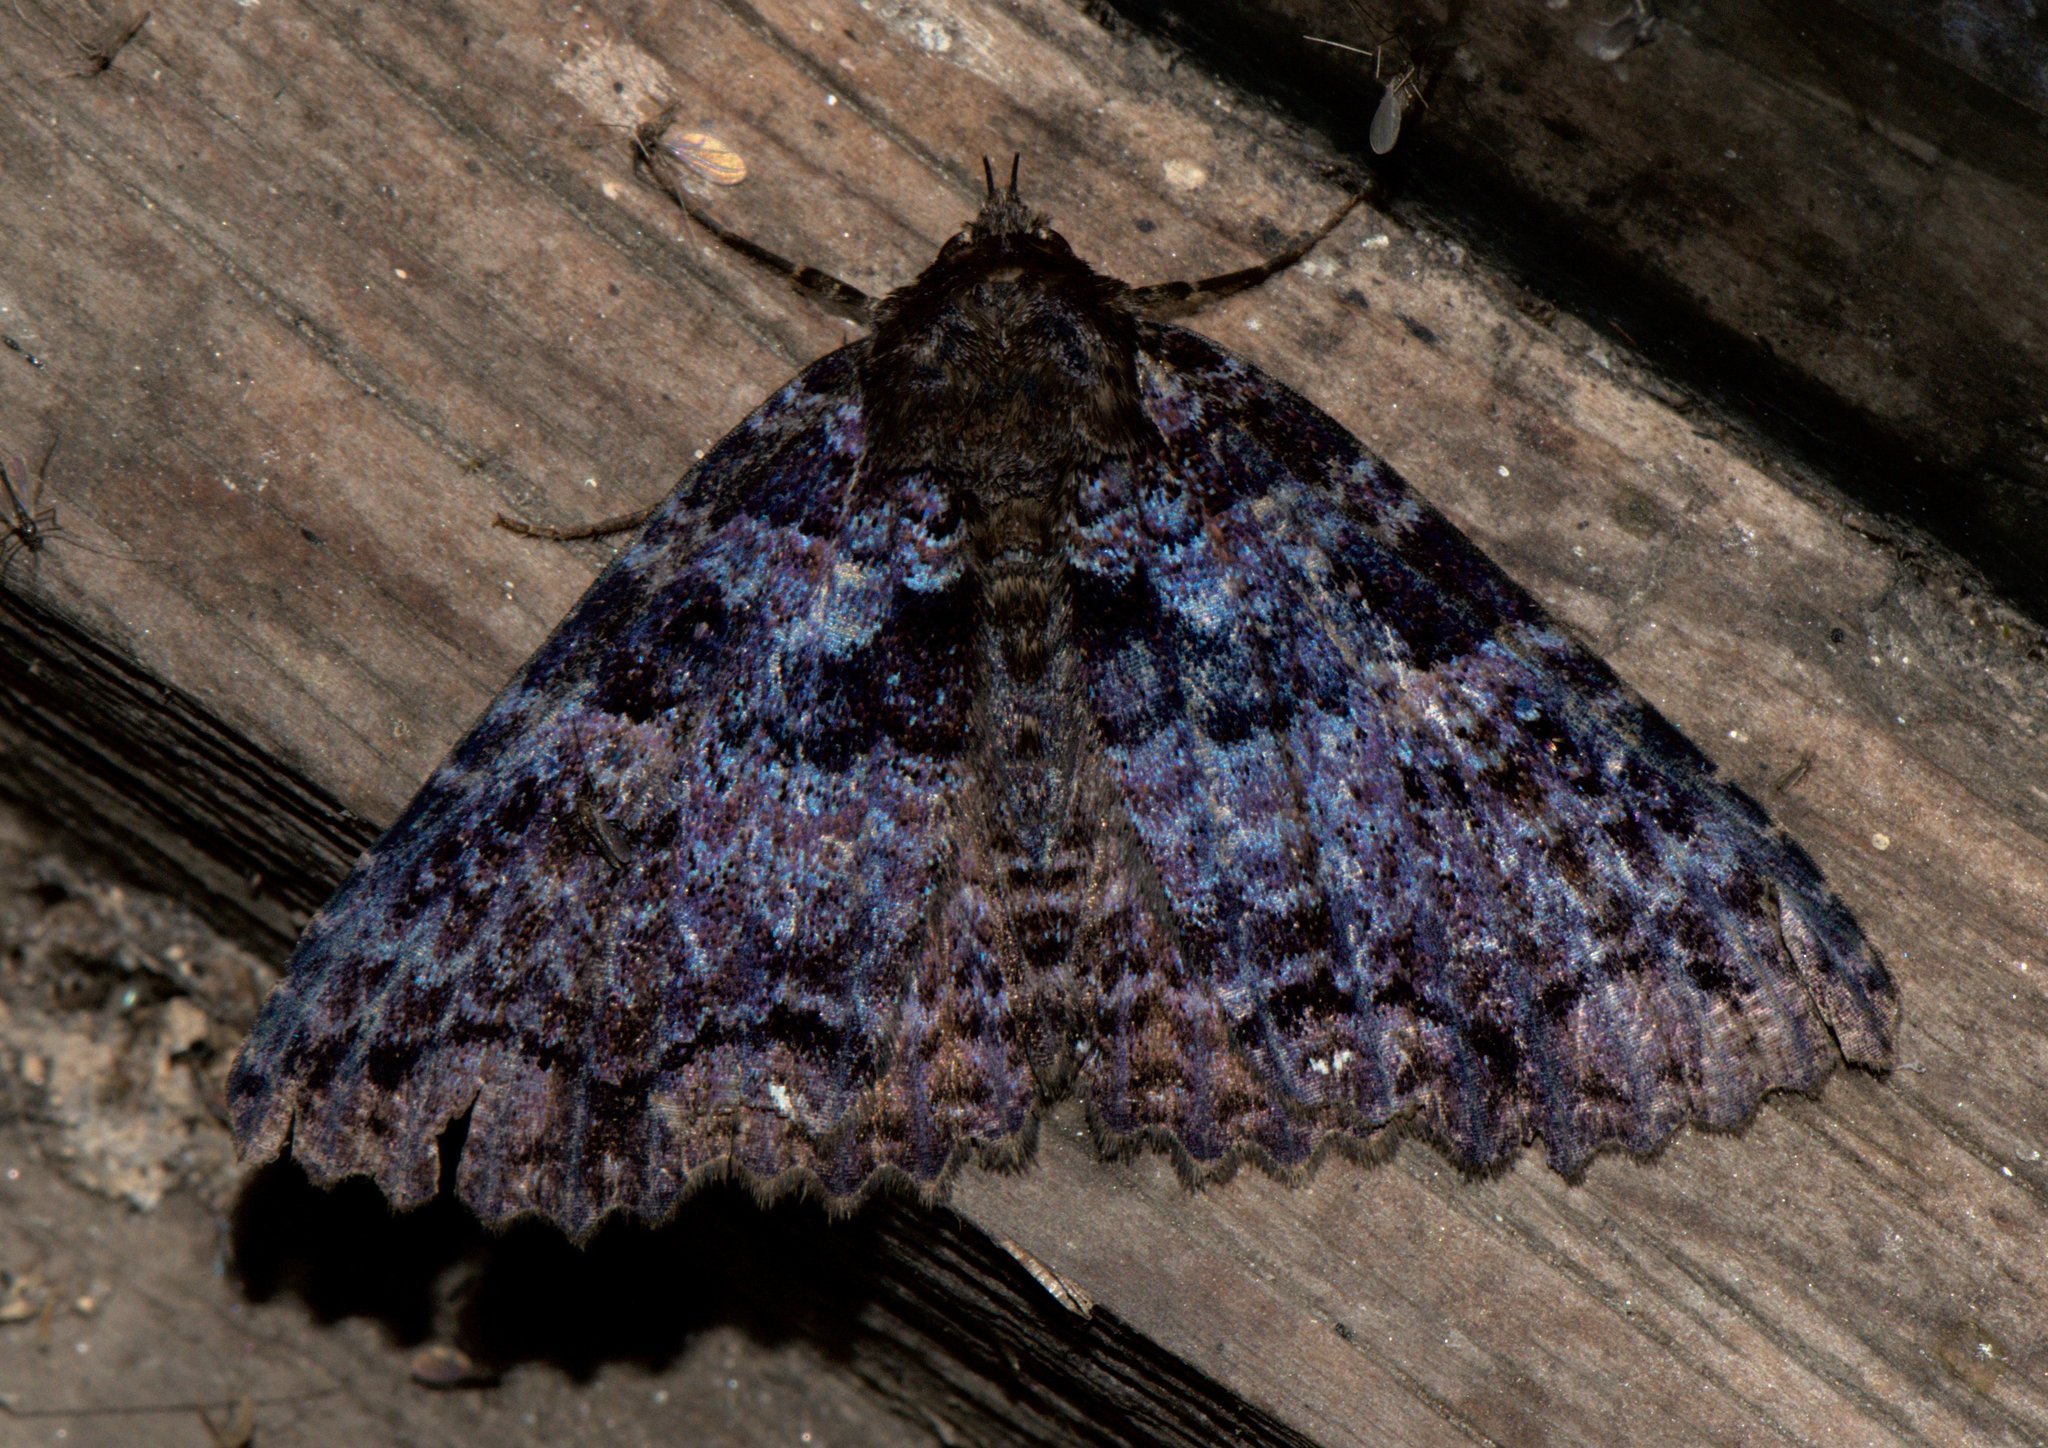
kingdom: Animalia
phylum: Arthropoda
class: Insecta
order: Lepidoptera
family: Erebidae
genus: Sypna
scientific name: Sypna omicronigera
